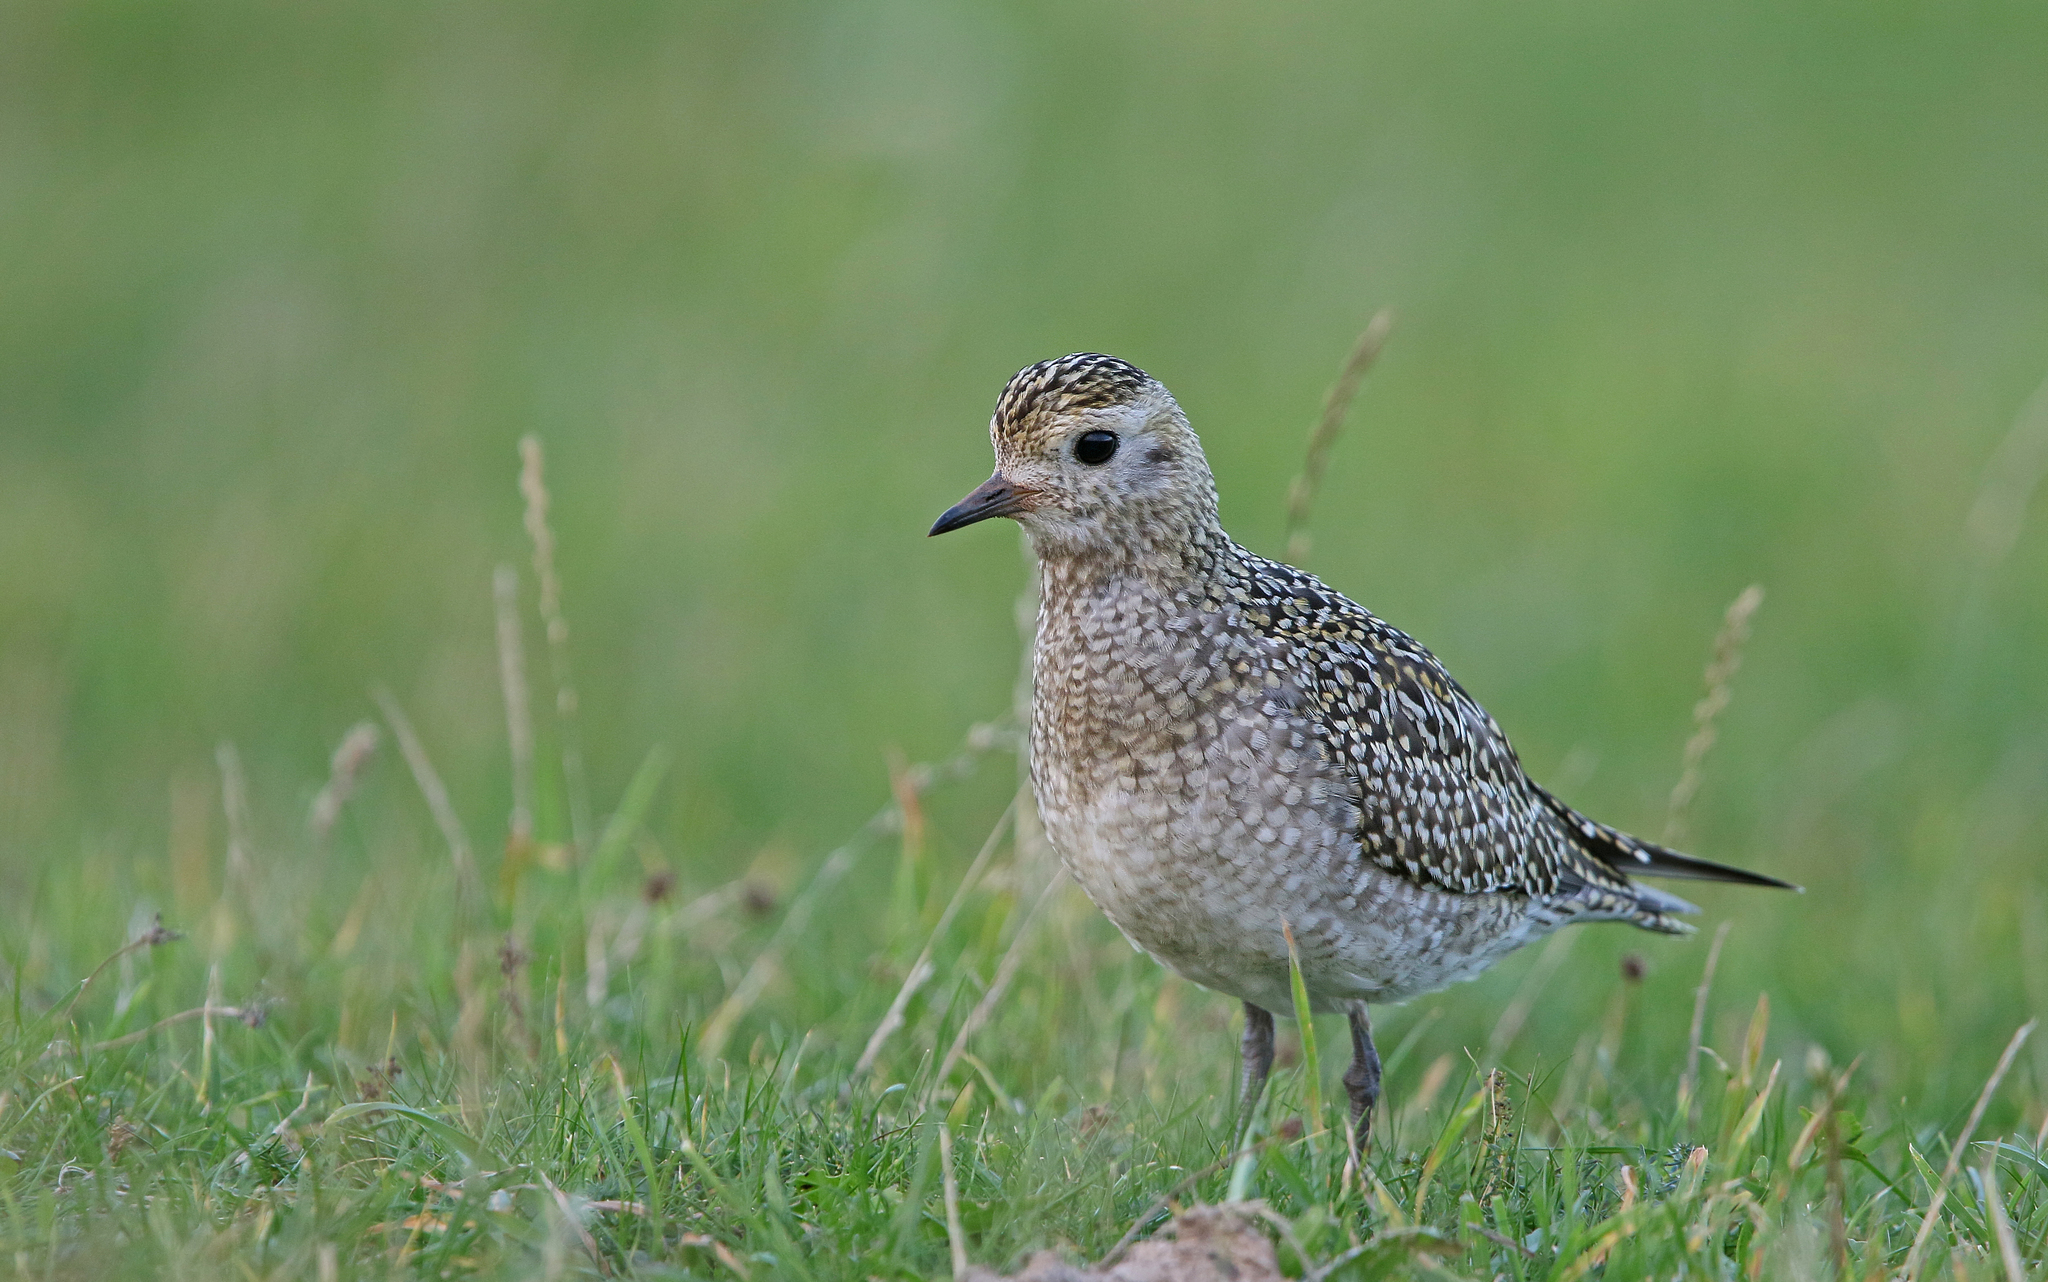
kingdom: Animalia
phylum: Chordata
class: Aves
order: Charadriiformes
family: Charadriidae
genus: Pluvialis
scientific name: Pluvialis apricaria
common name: European golden plover
